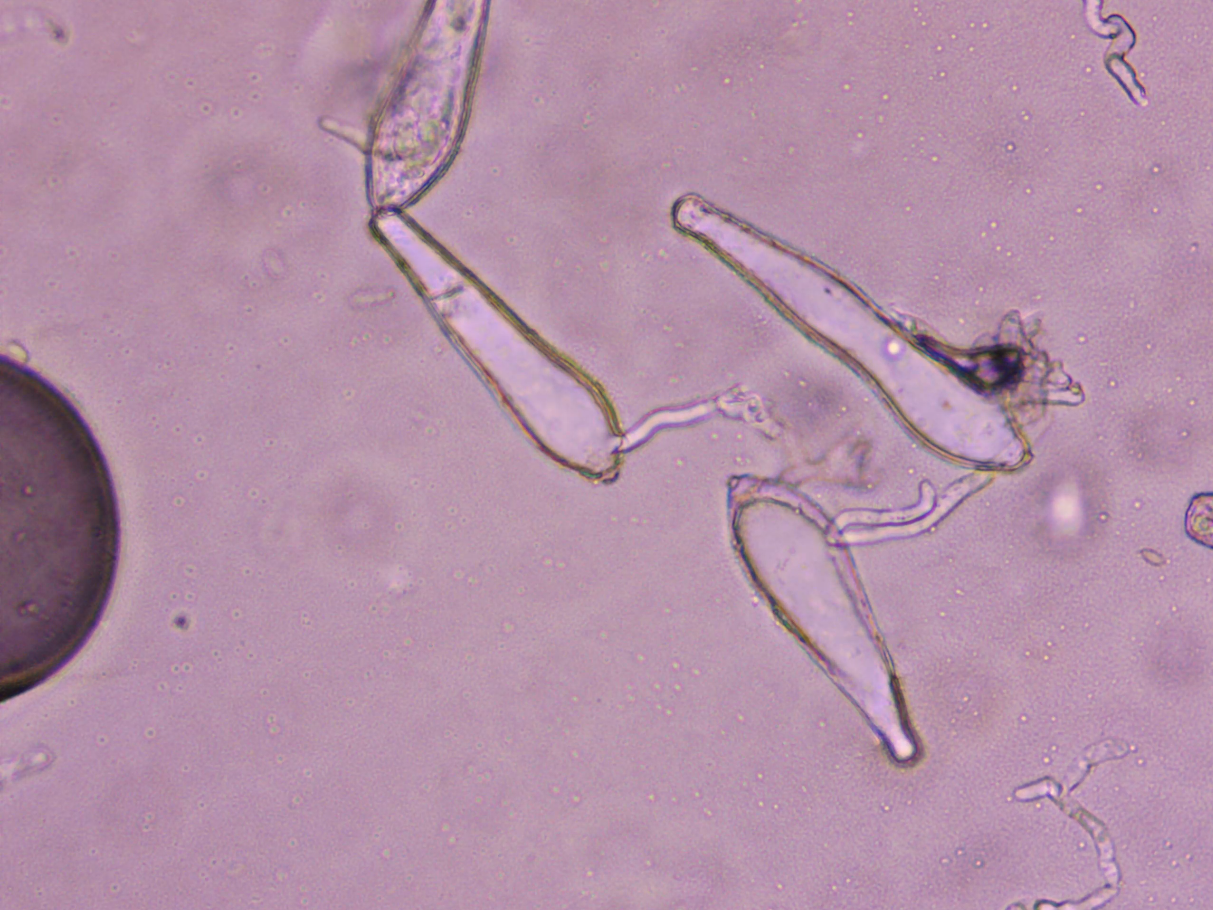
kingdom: Fungi
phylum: Ascomycota
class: Leotiomycetes
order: Helotiales
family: Erysiphaceae
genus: Phyllactinia
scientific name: Phyllactinia fraxini
